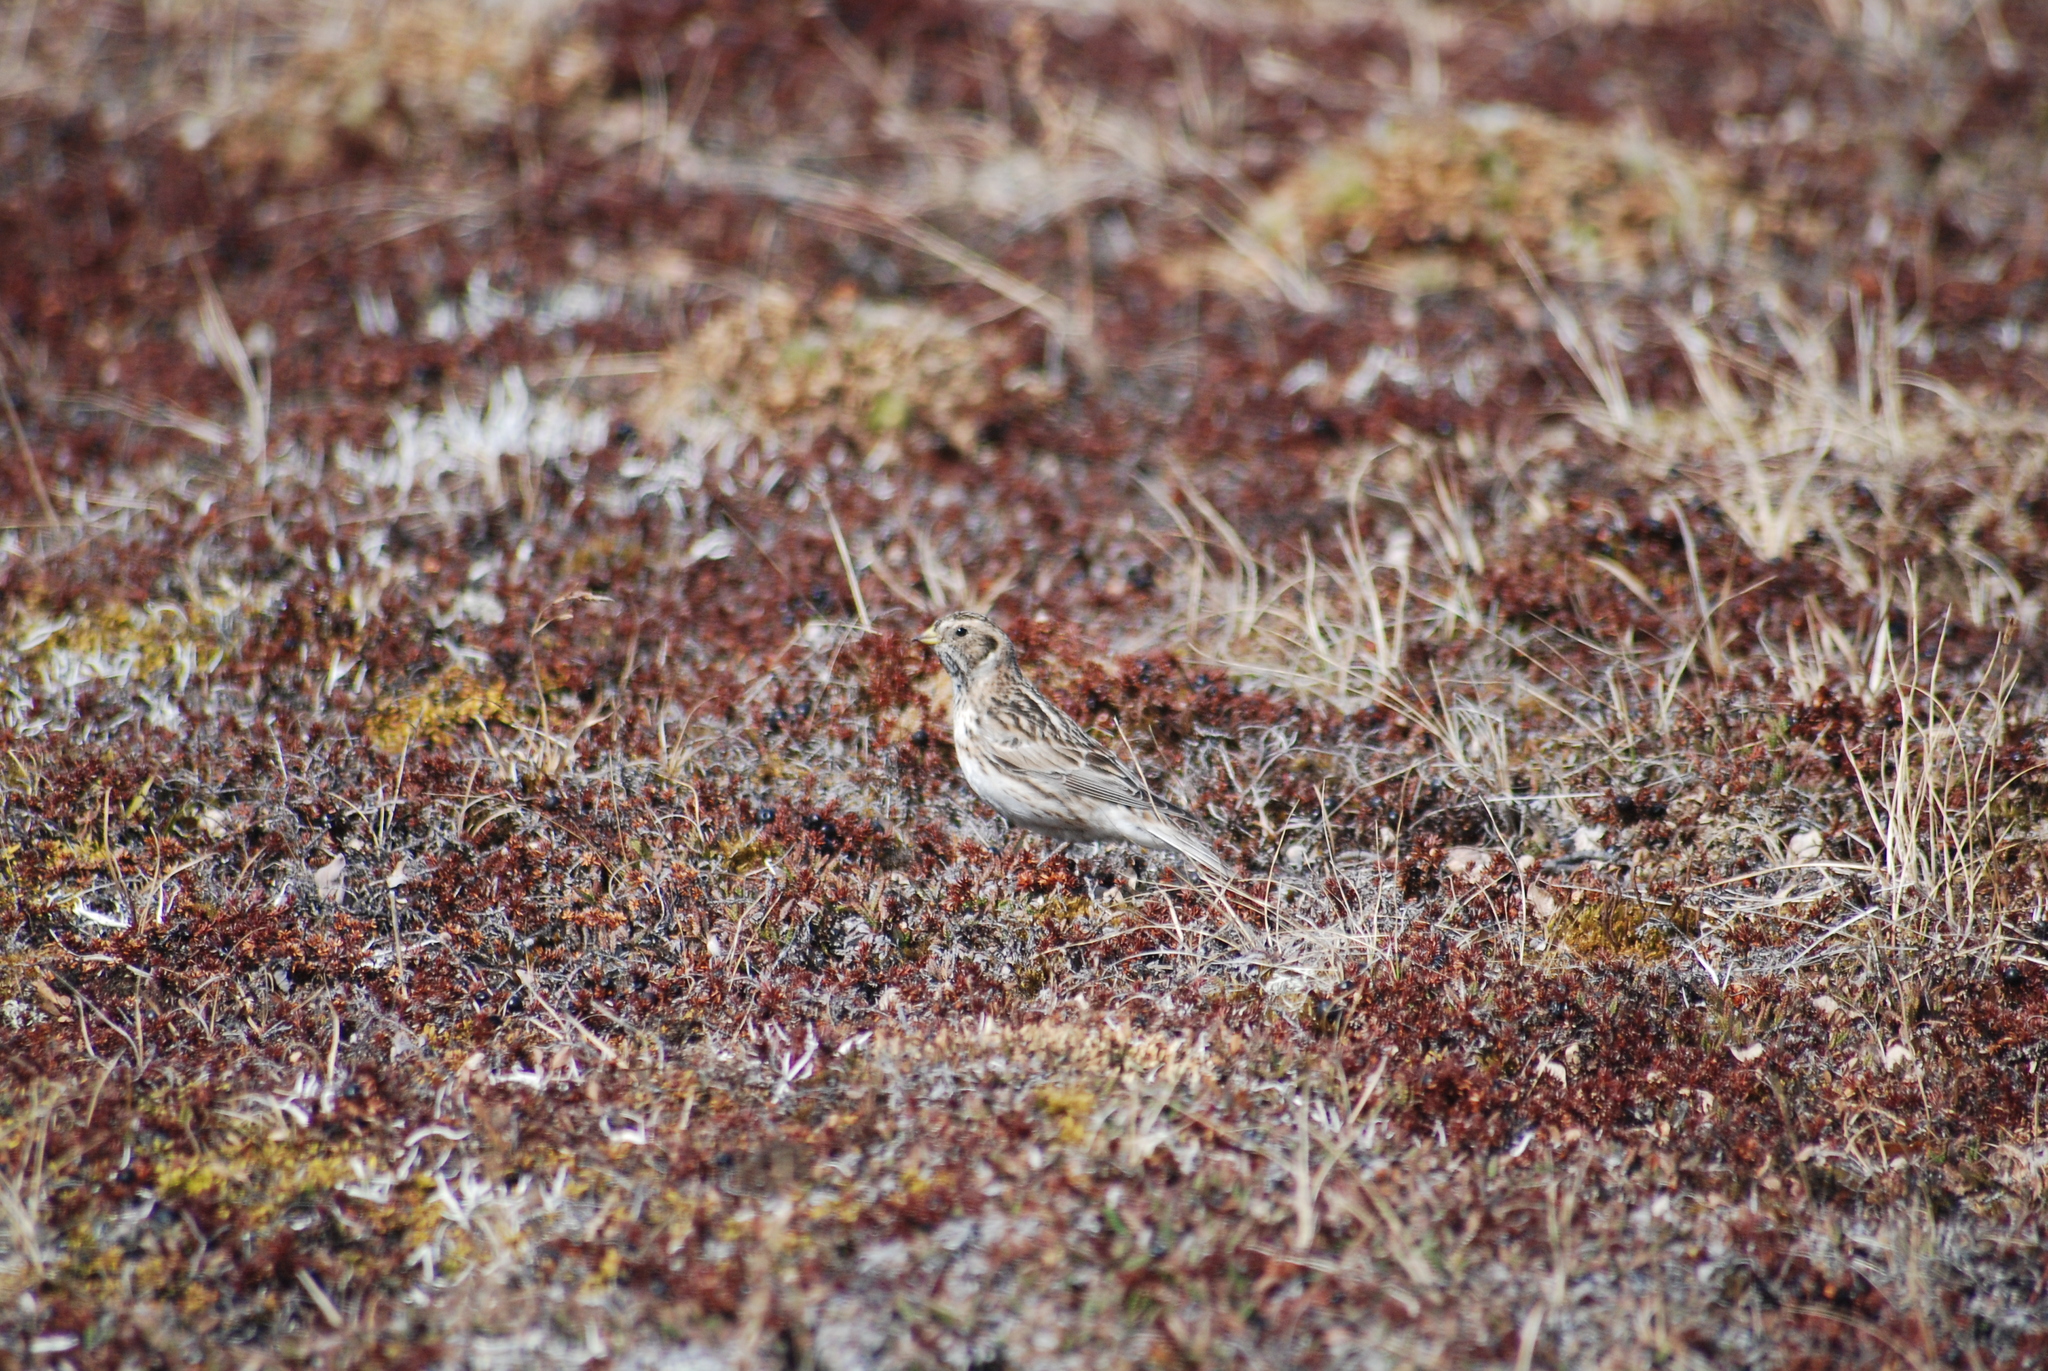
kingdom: Animalia
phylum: Chordata
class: Aves
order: Passeriformes
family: Calcariidae
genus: Calcarius
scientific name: Calcarius lapponicus
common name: Lapland longspur
